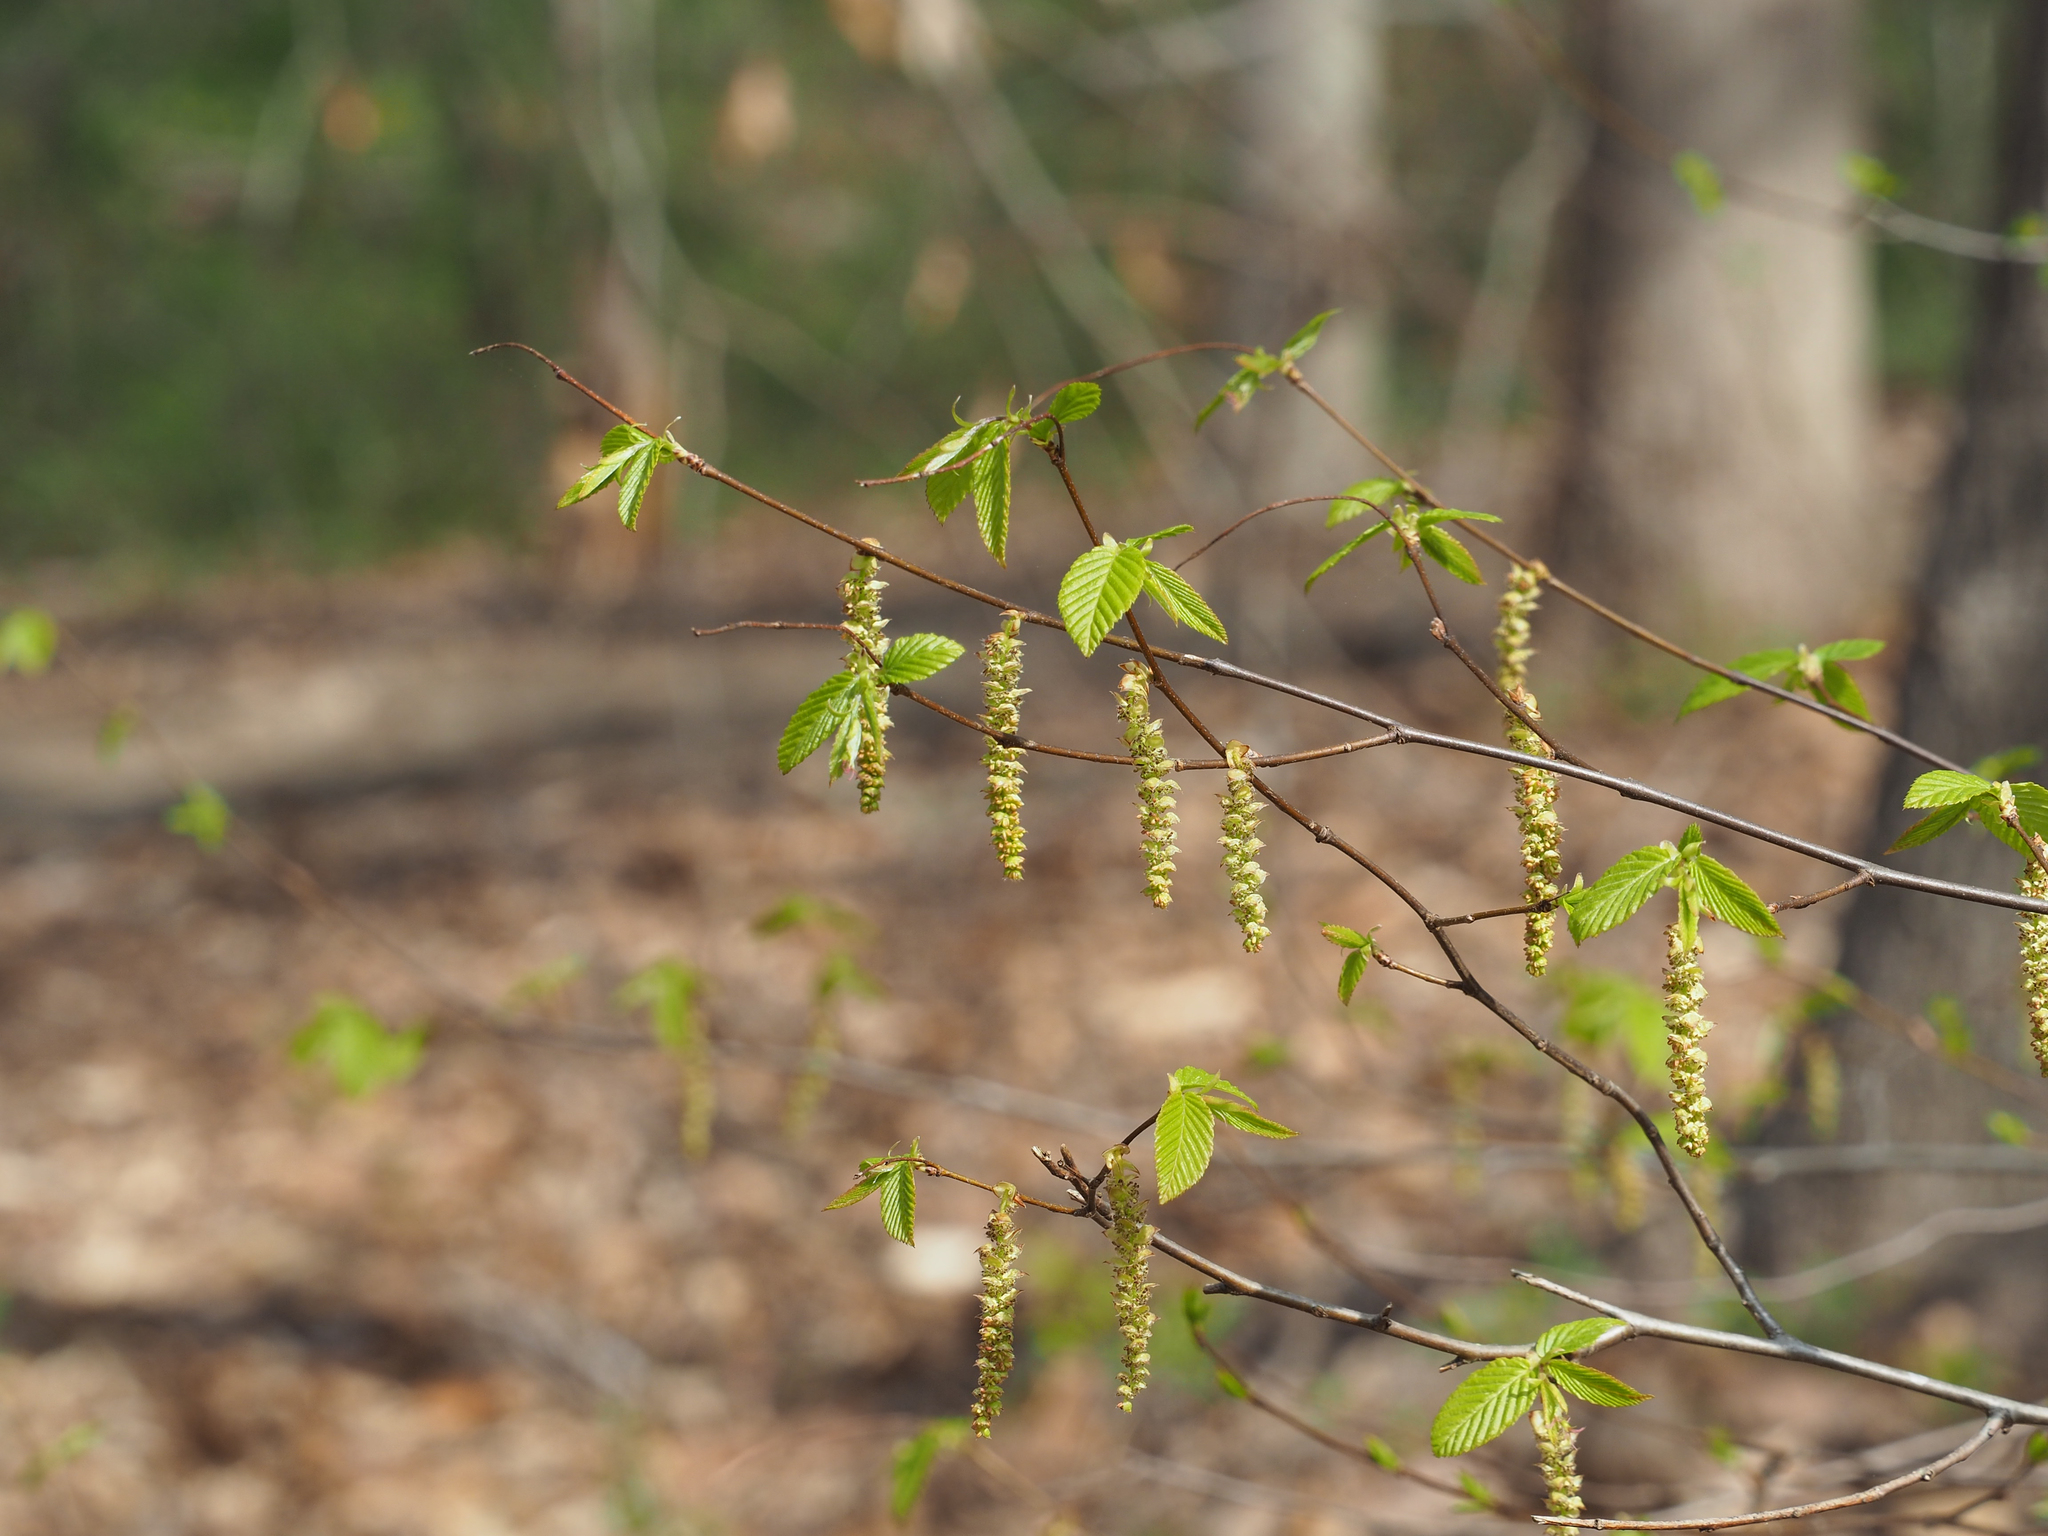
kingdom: Plantae
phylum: Tracheophyta
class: Magnoliopsida
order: Fagales
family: Betulaceae
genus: Ostrya
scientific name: Ostrya virginiana
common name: Ironwood
